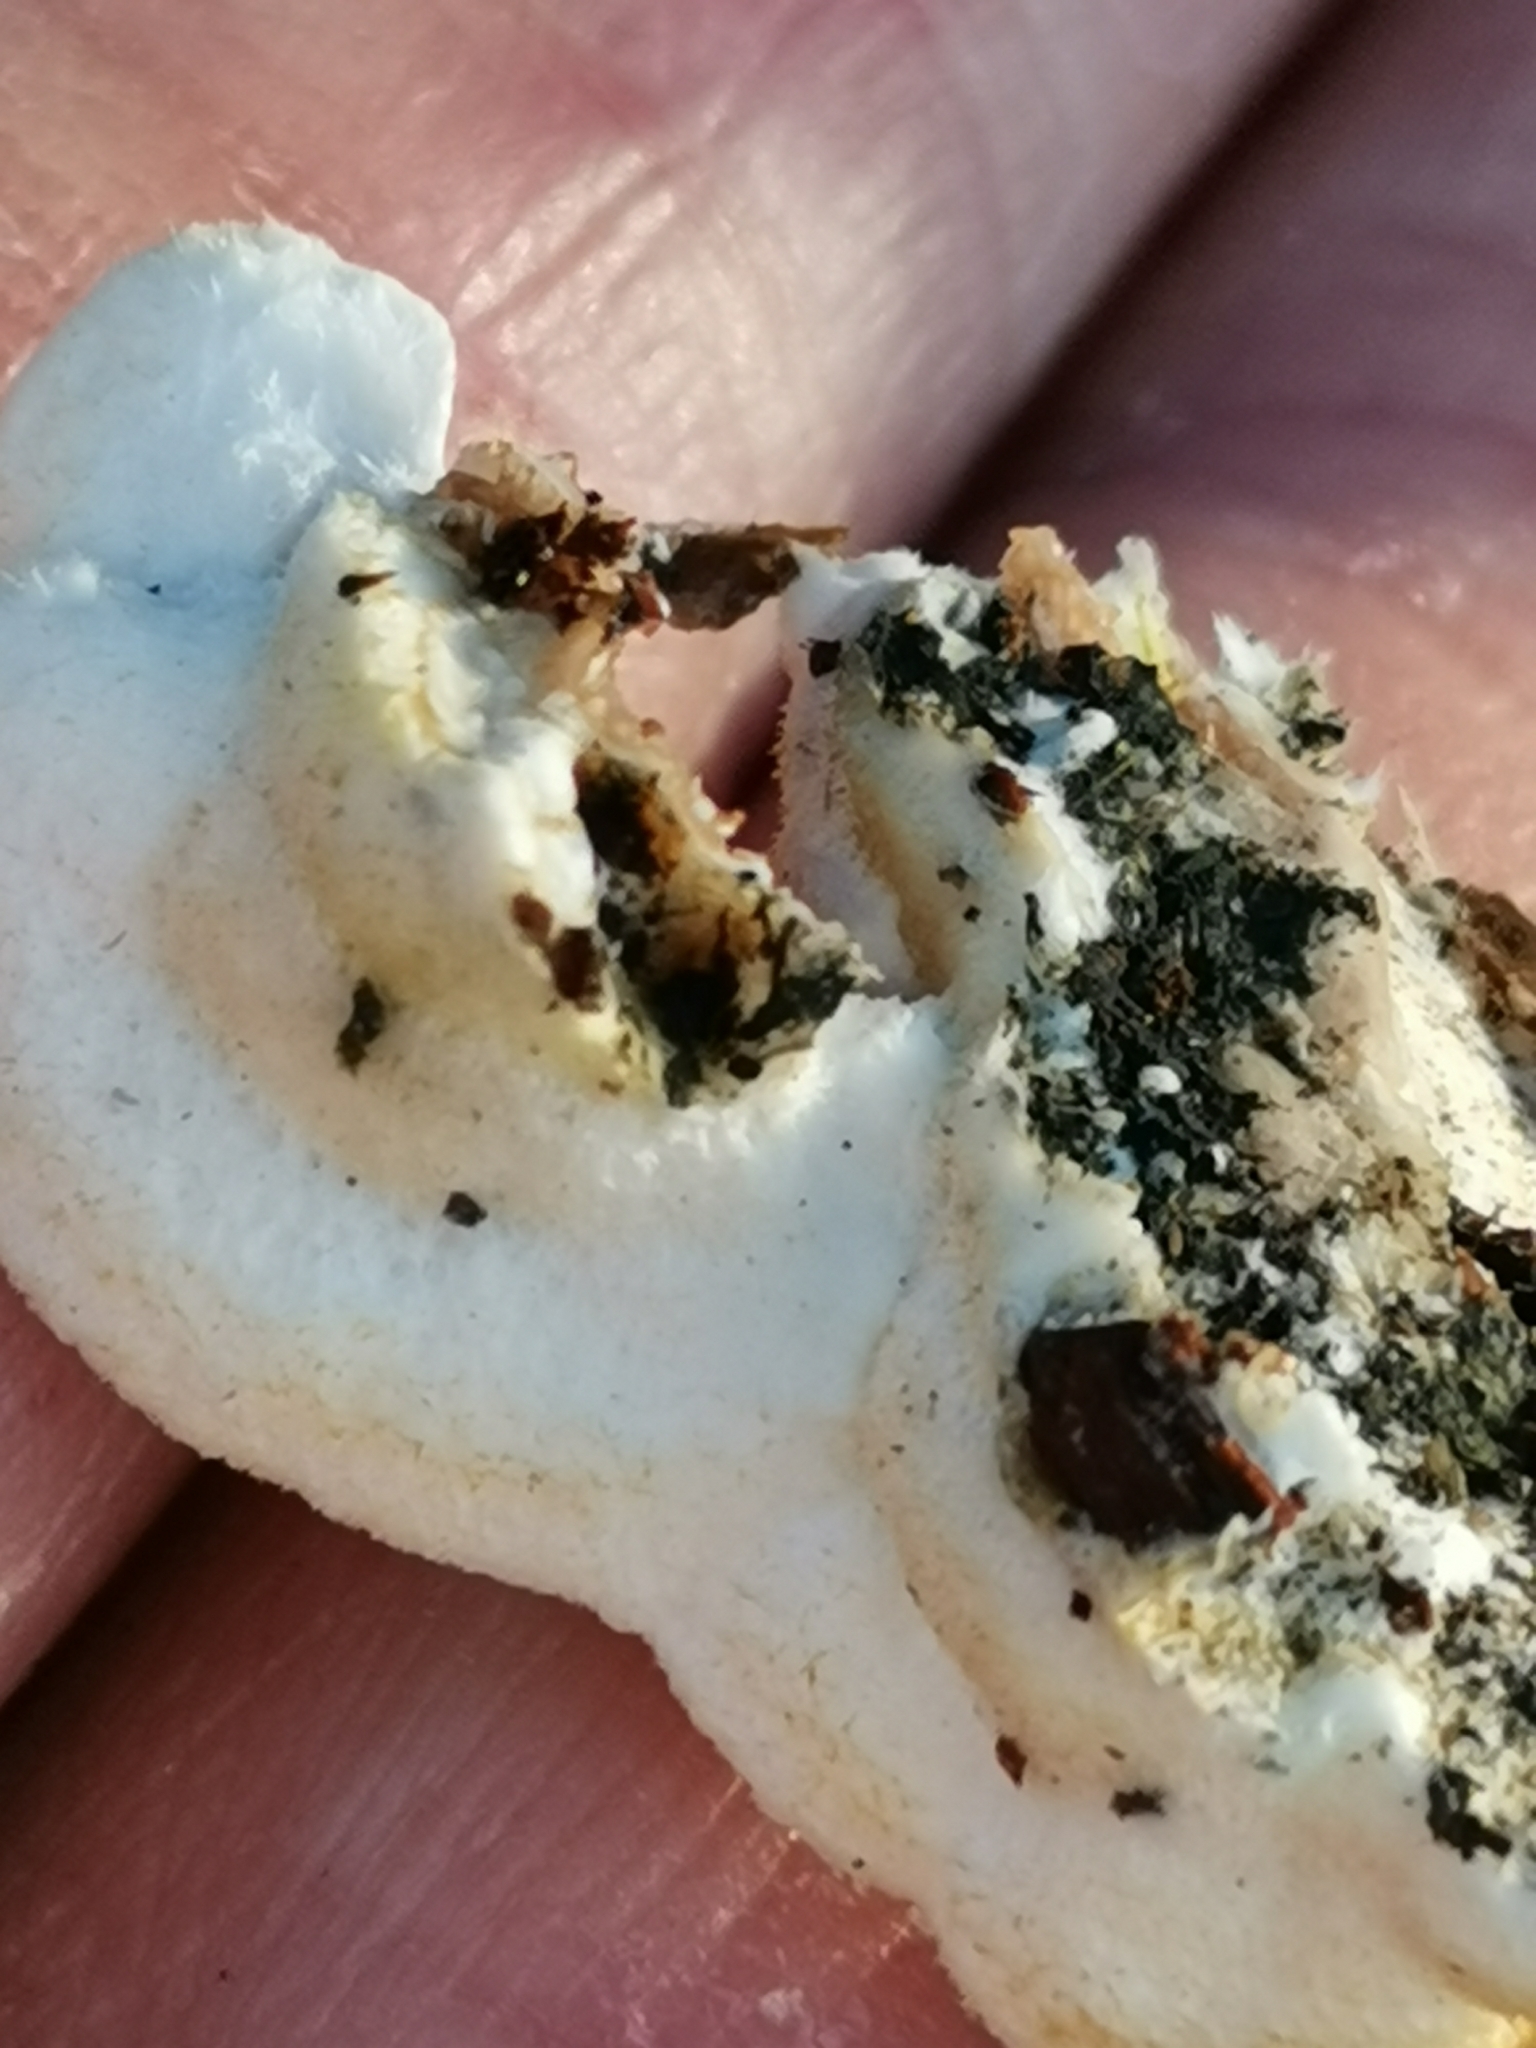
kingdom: Fungi
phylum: Basidiomycota
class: Agaricomycetes
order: Polyporales
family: Irpicaceae
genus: Vitreoporus
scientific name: Vitreoporus dichrous
